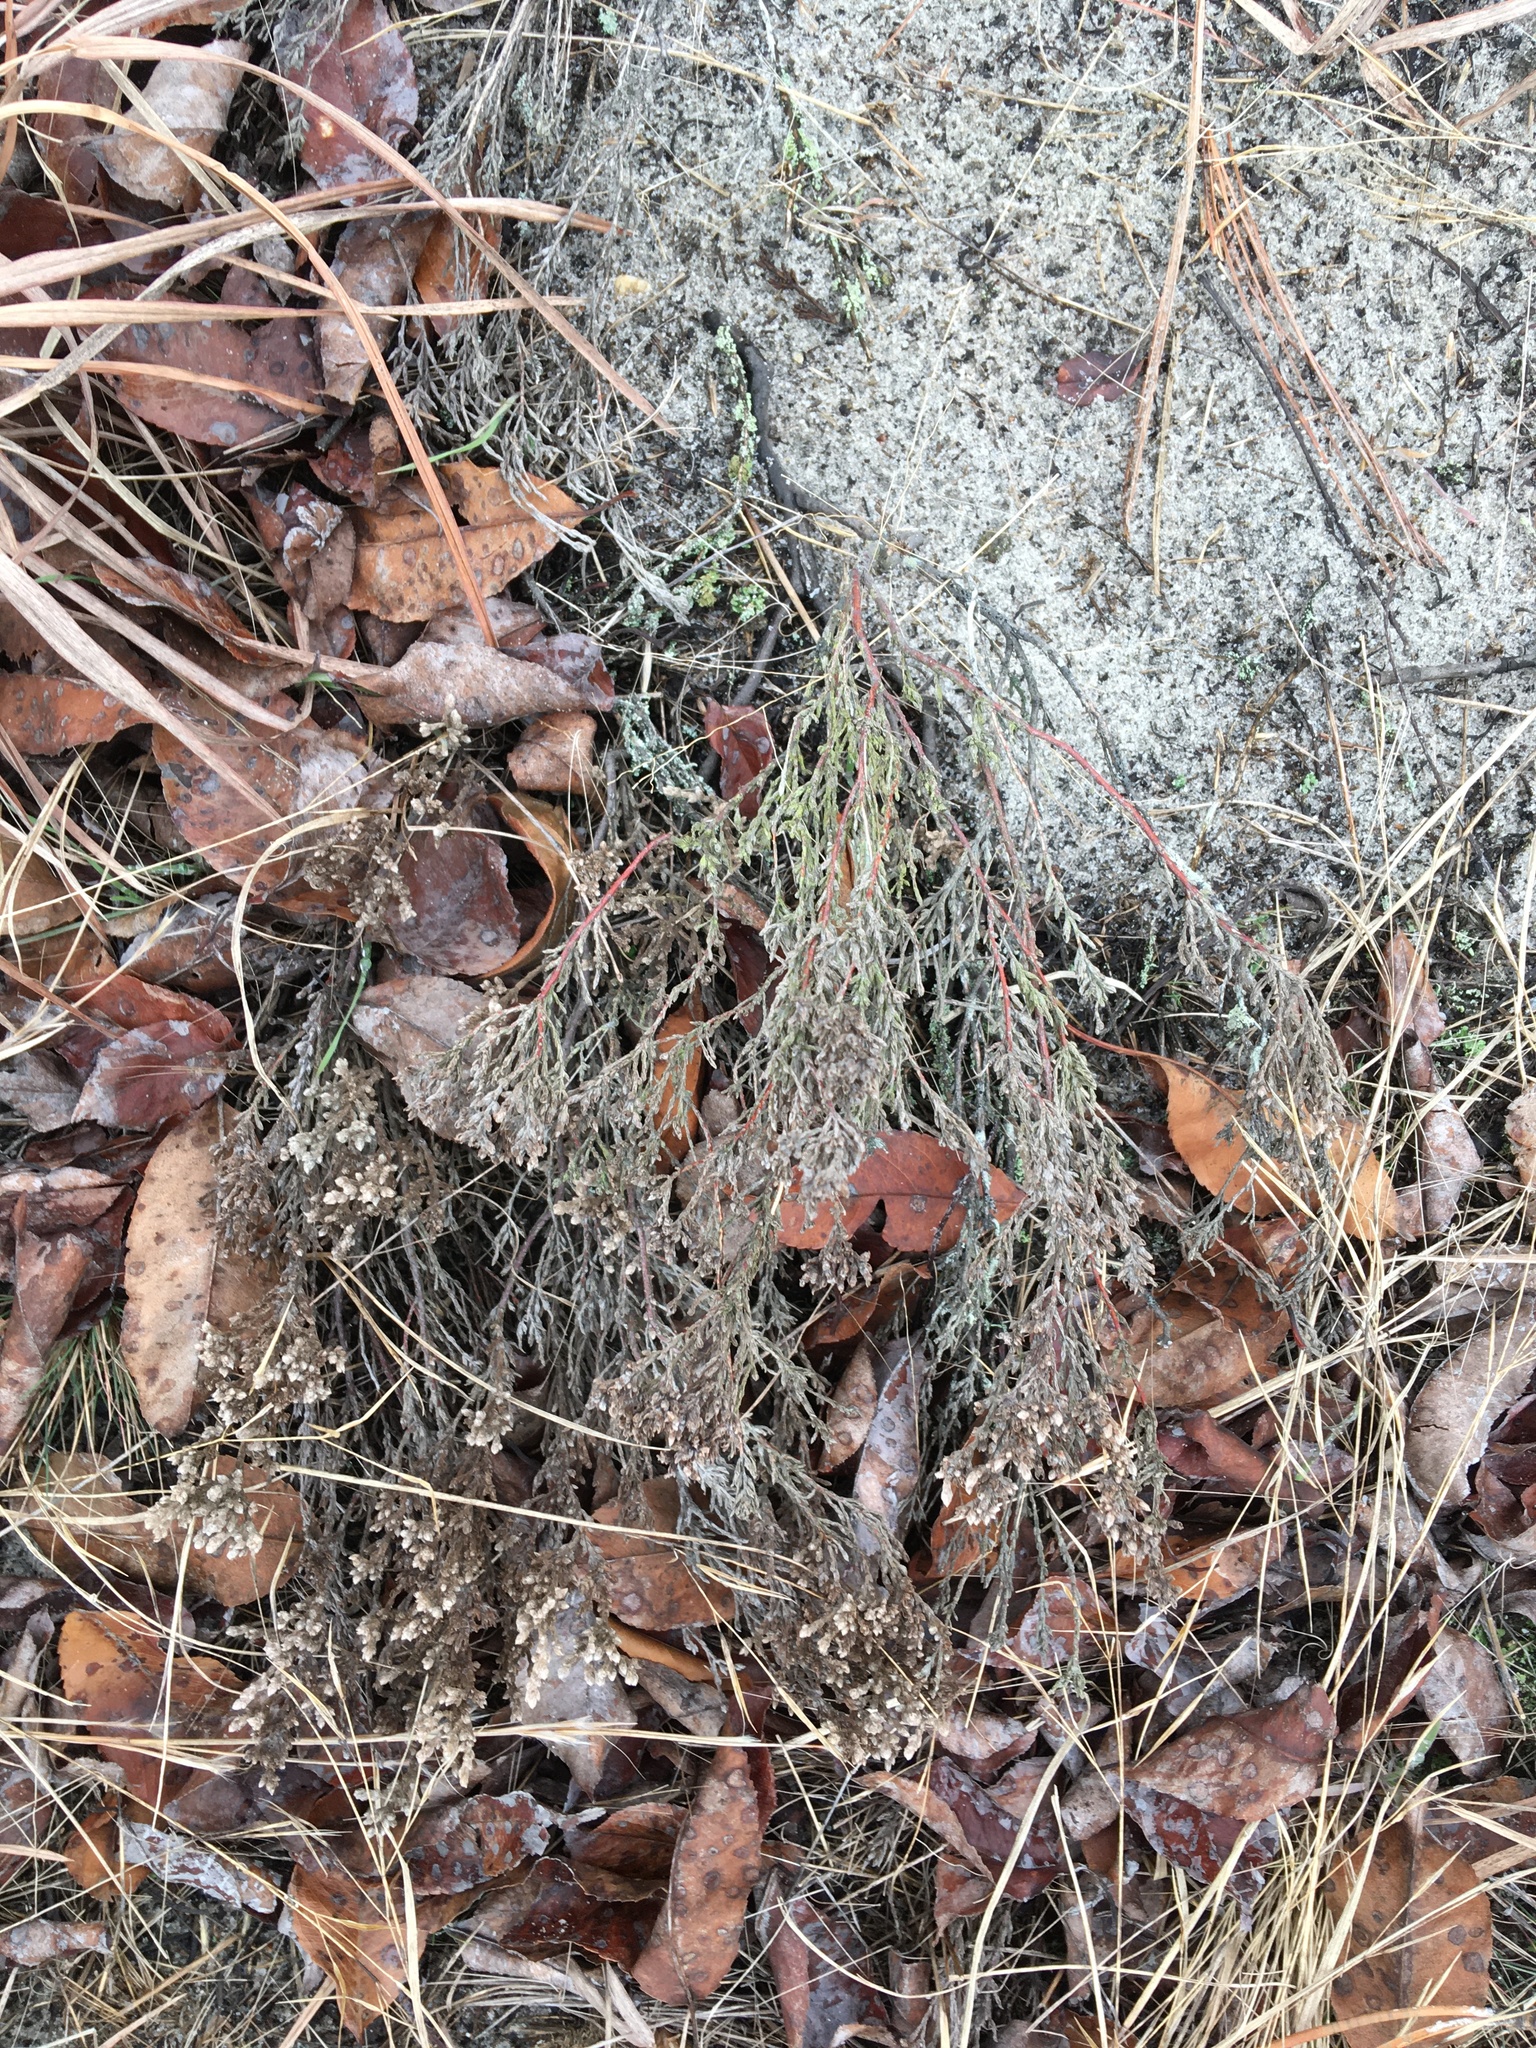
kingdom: Plantae
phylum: Tracheophyta
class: Magnoliopsida
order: Malvales
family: Cistaceae
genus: Hudsonia
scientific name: Hudsonia tomentosa
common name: Beach-heath
